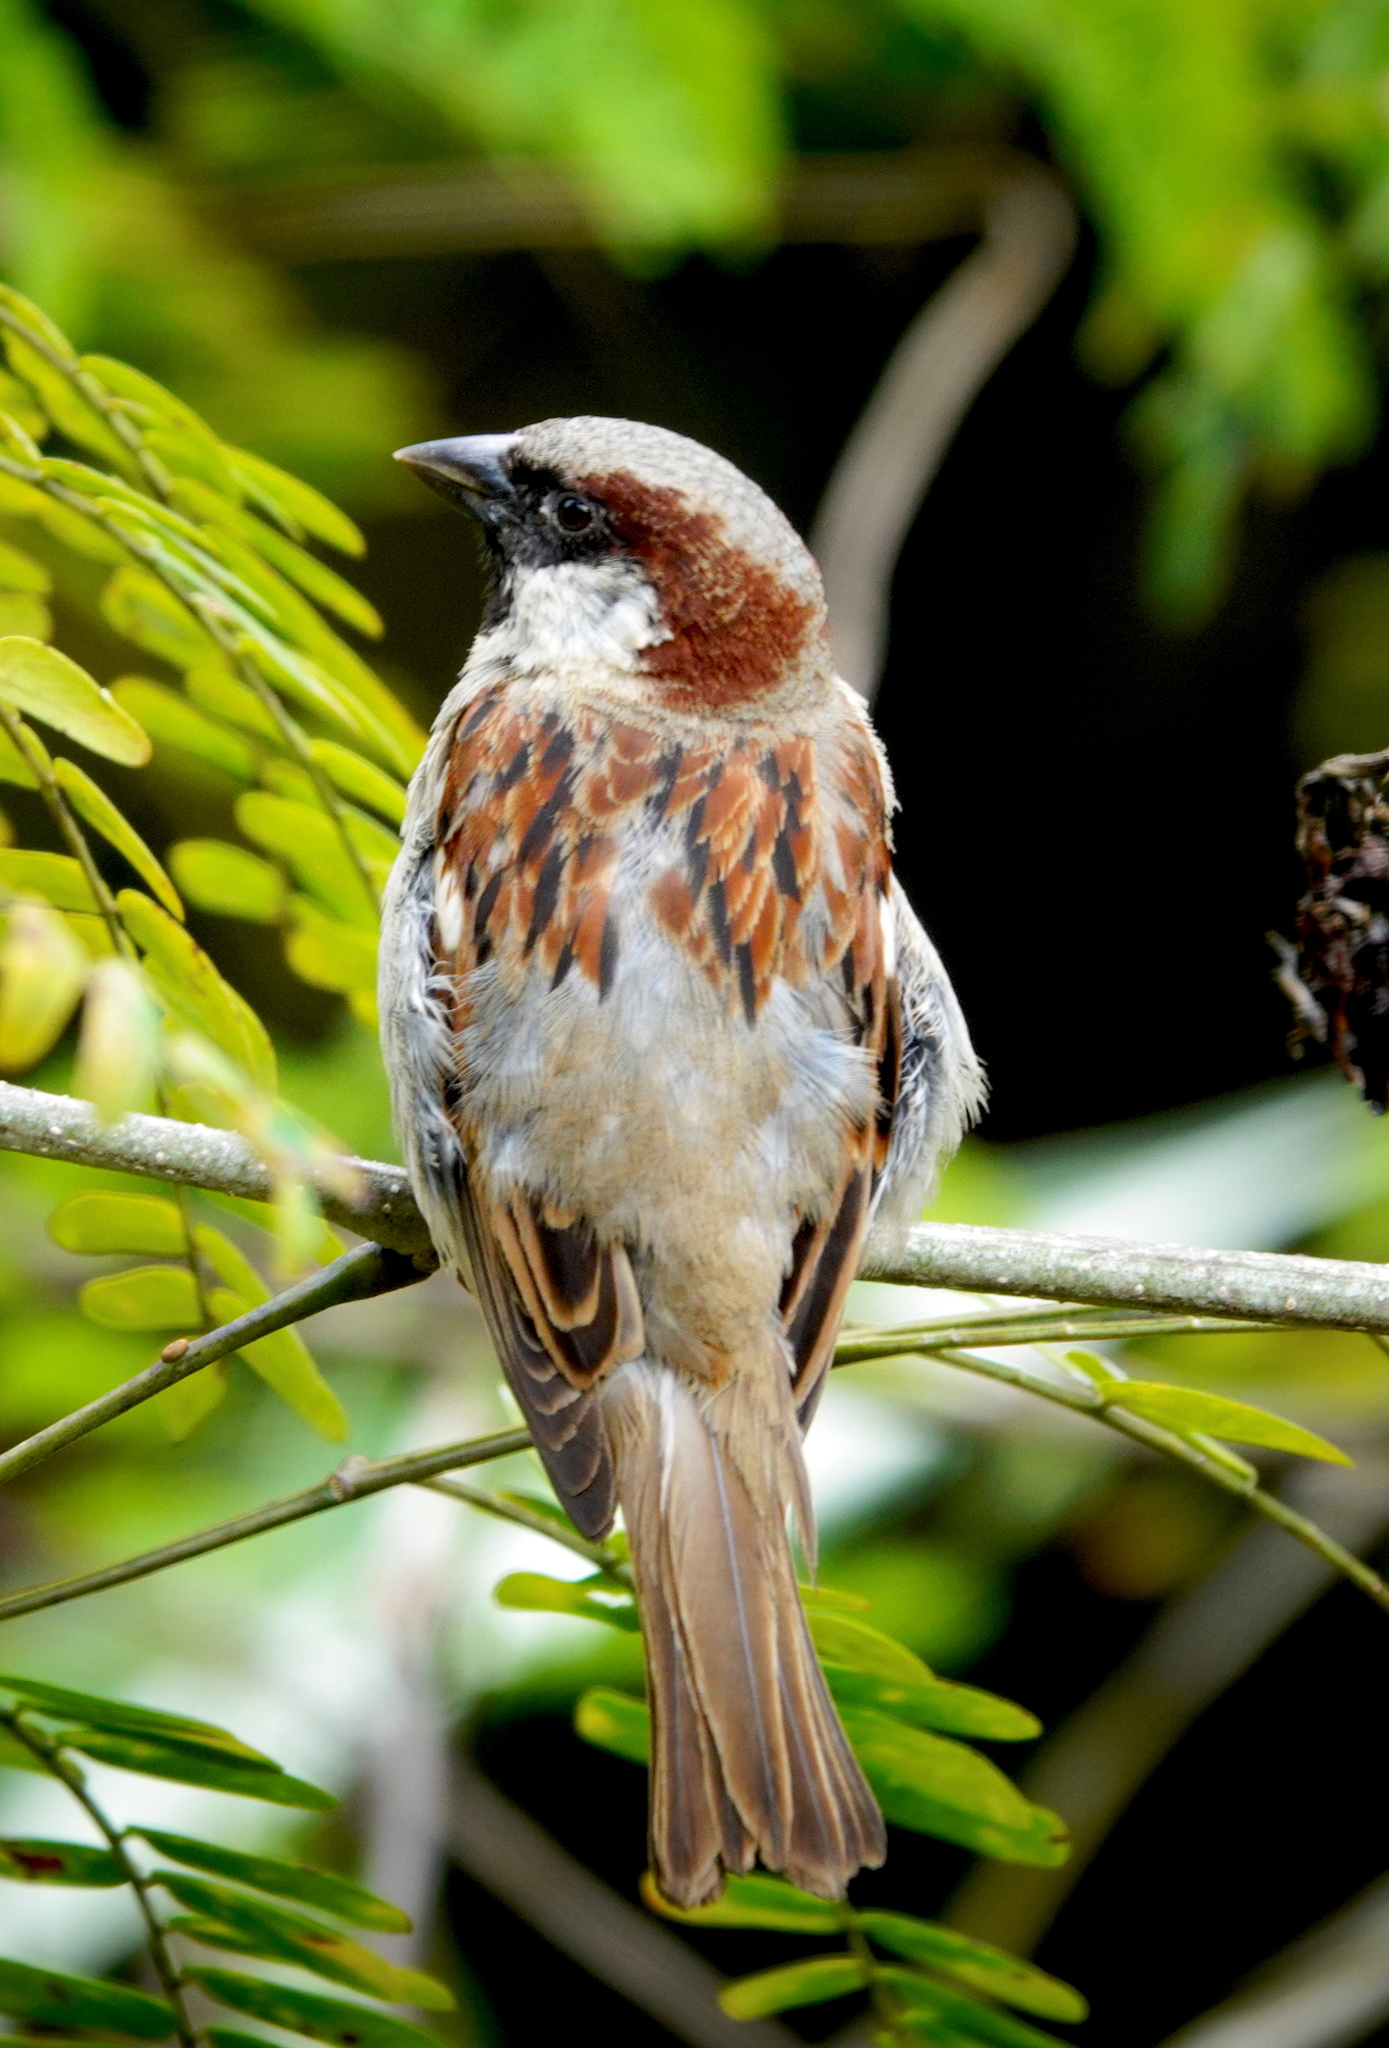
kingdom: Animalia
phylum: Chordata
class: Aves
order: Passeriformes
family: Passeridae
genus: Passer
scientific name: Passer domesticus
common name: House sparrow
